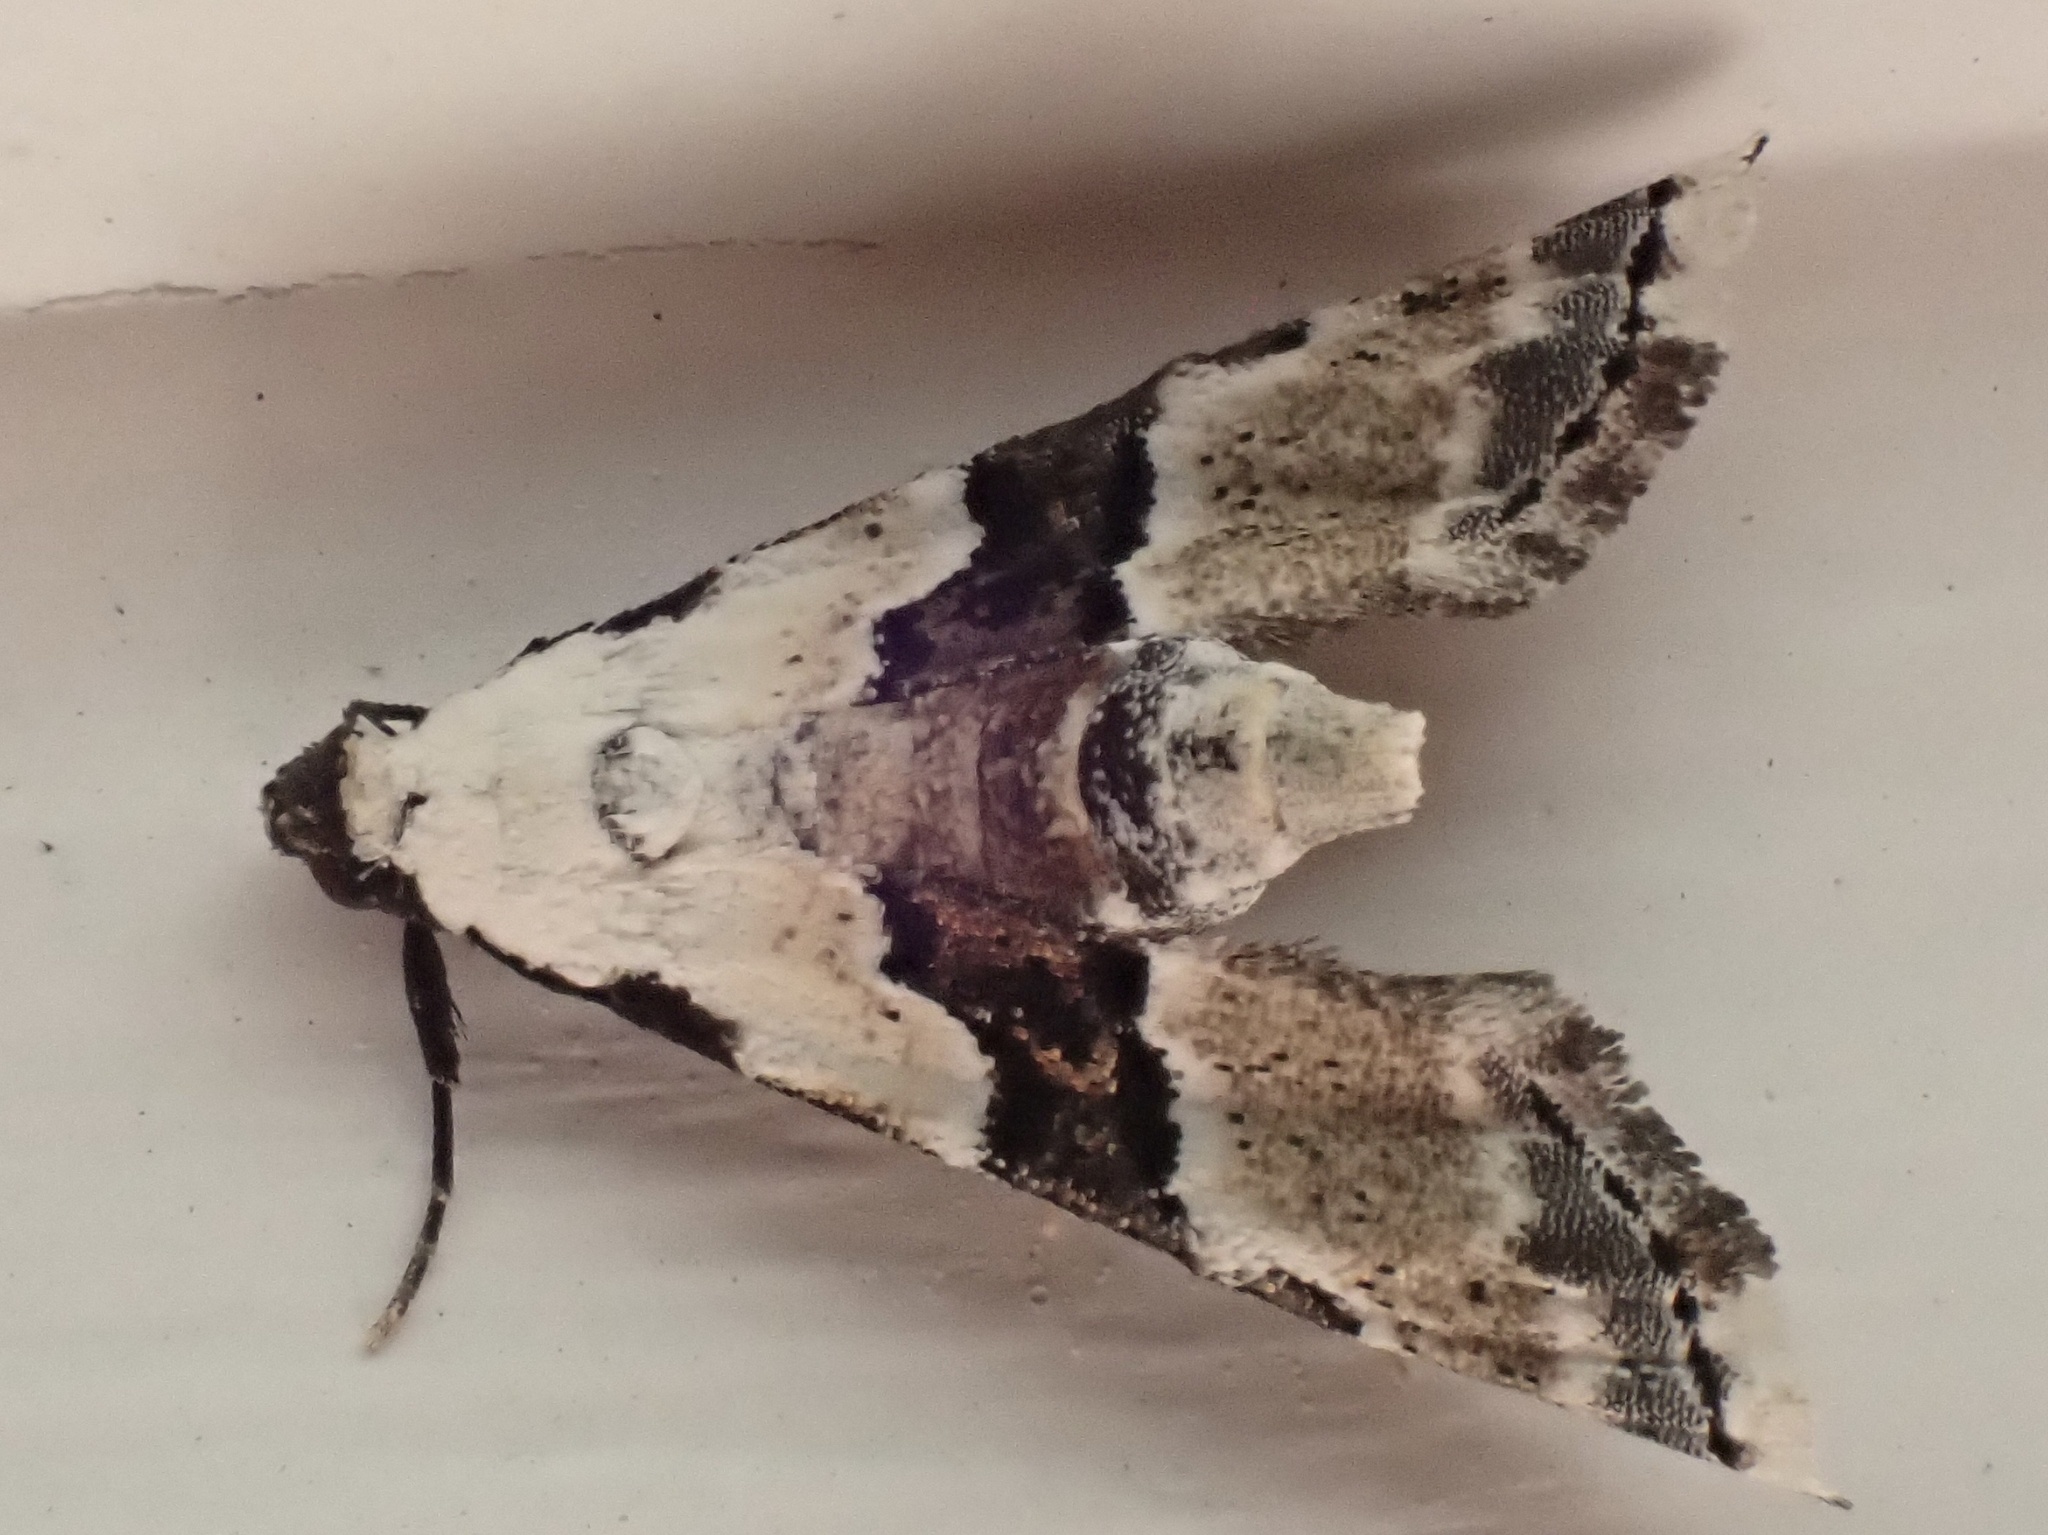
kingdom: Animalia
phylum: Arthropoda
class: Insecta
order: Lepidoptera
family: Noctuidae
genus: Nigetia
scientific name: Nigetia formosalis
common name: Thin-winged owlet
